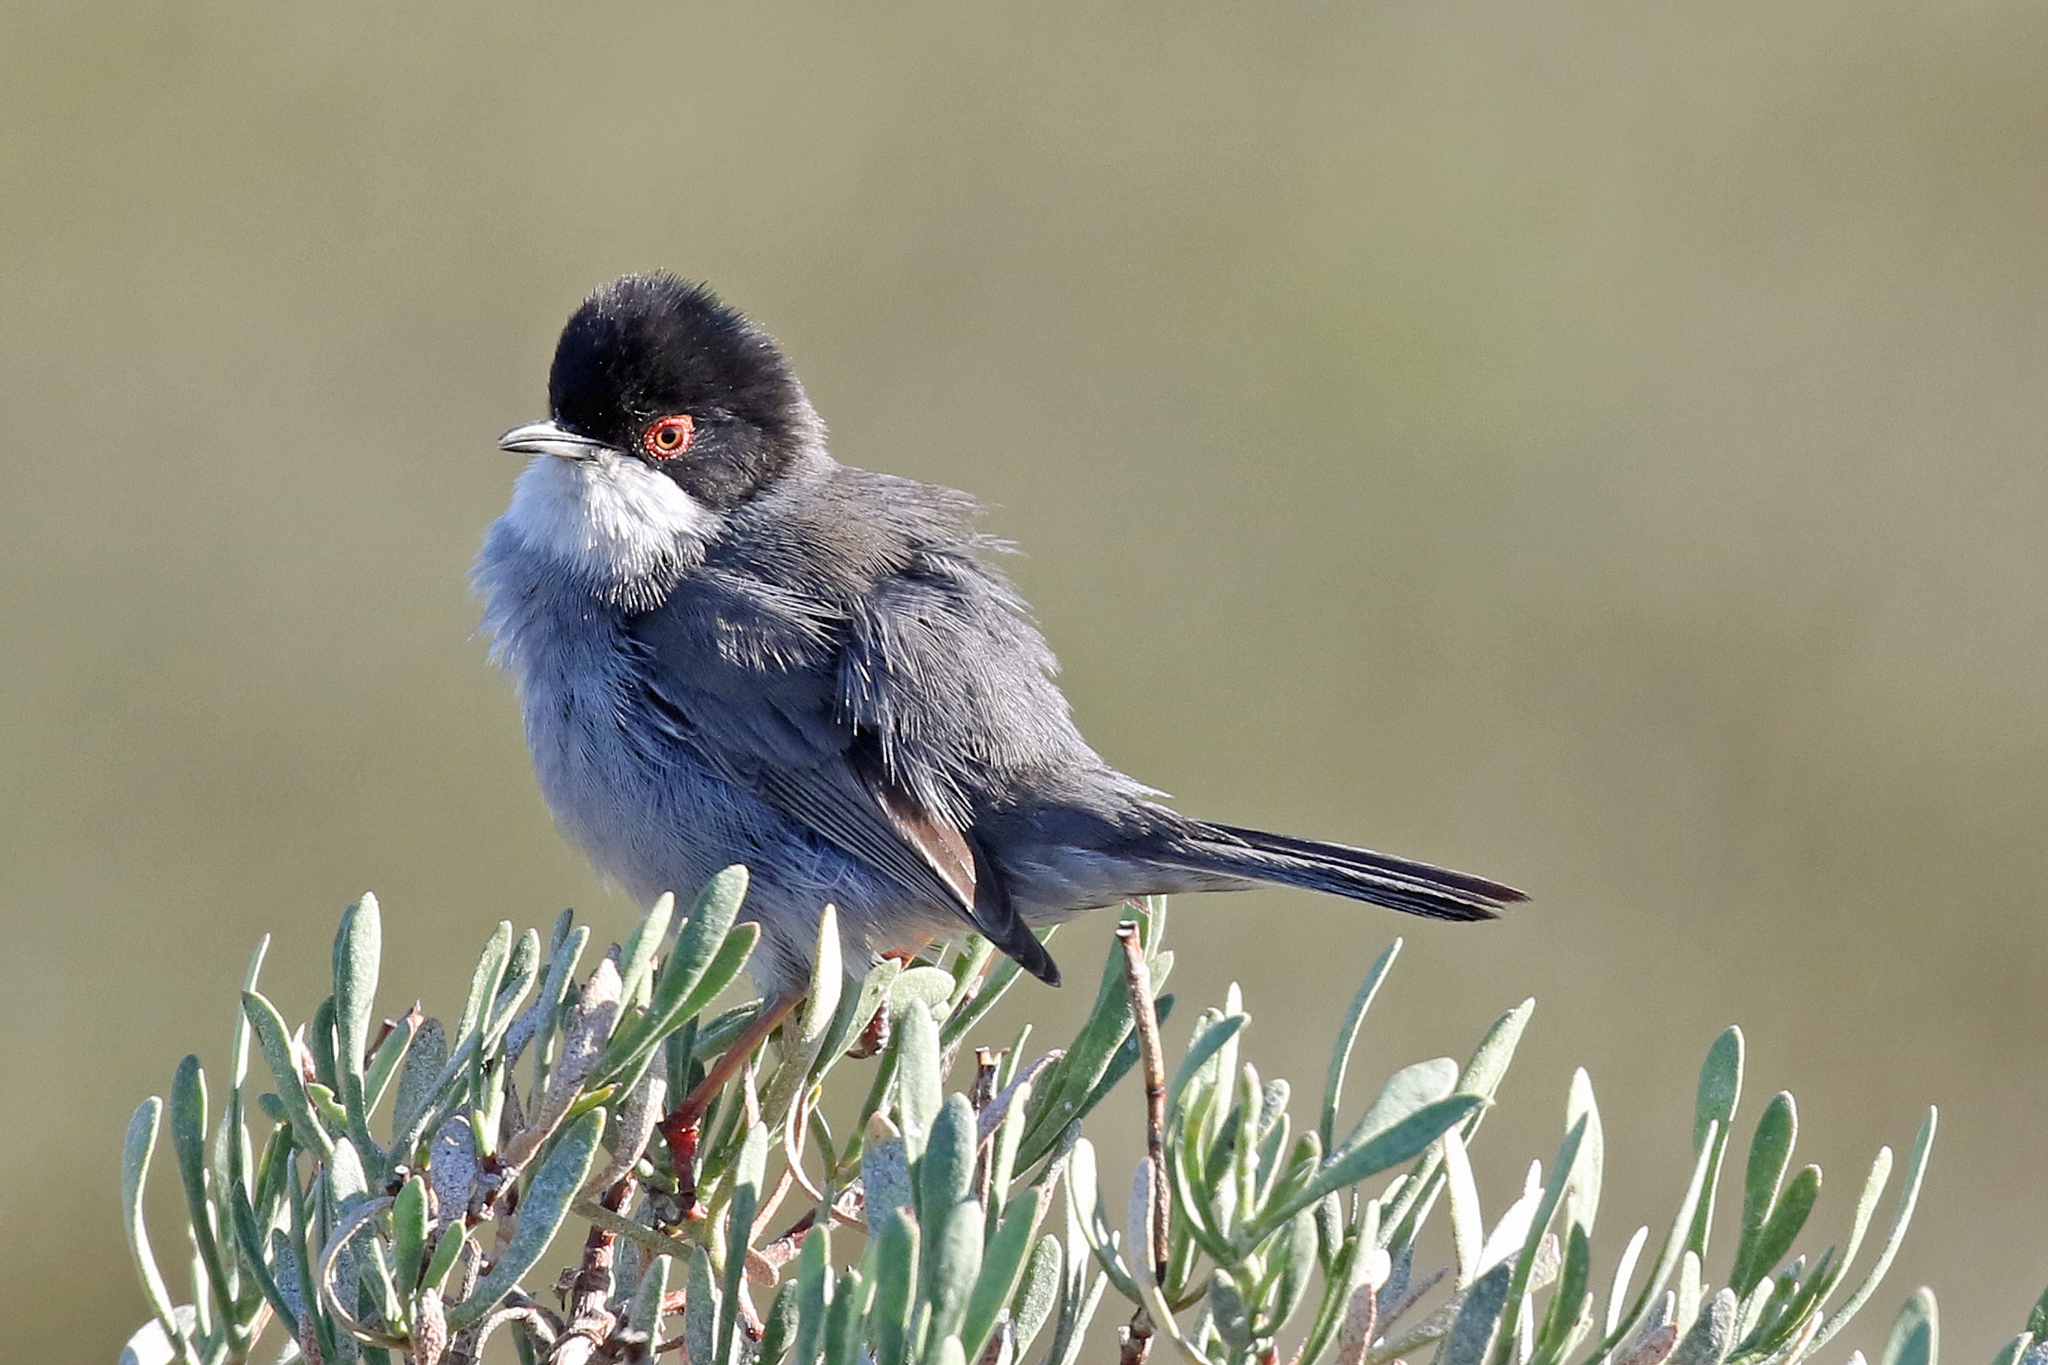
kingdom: Animalia
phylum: Chordata
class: Aves
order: Passeriformes
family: Sylviidae
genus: Curruca
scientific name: Curruca melanocephala
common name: Sardinian warbler
